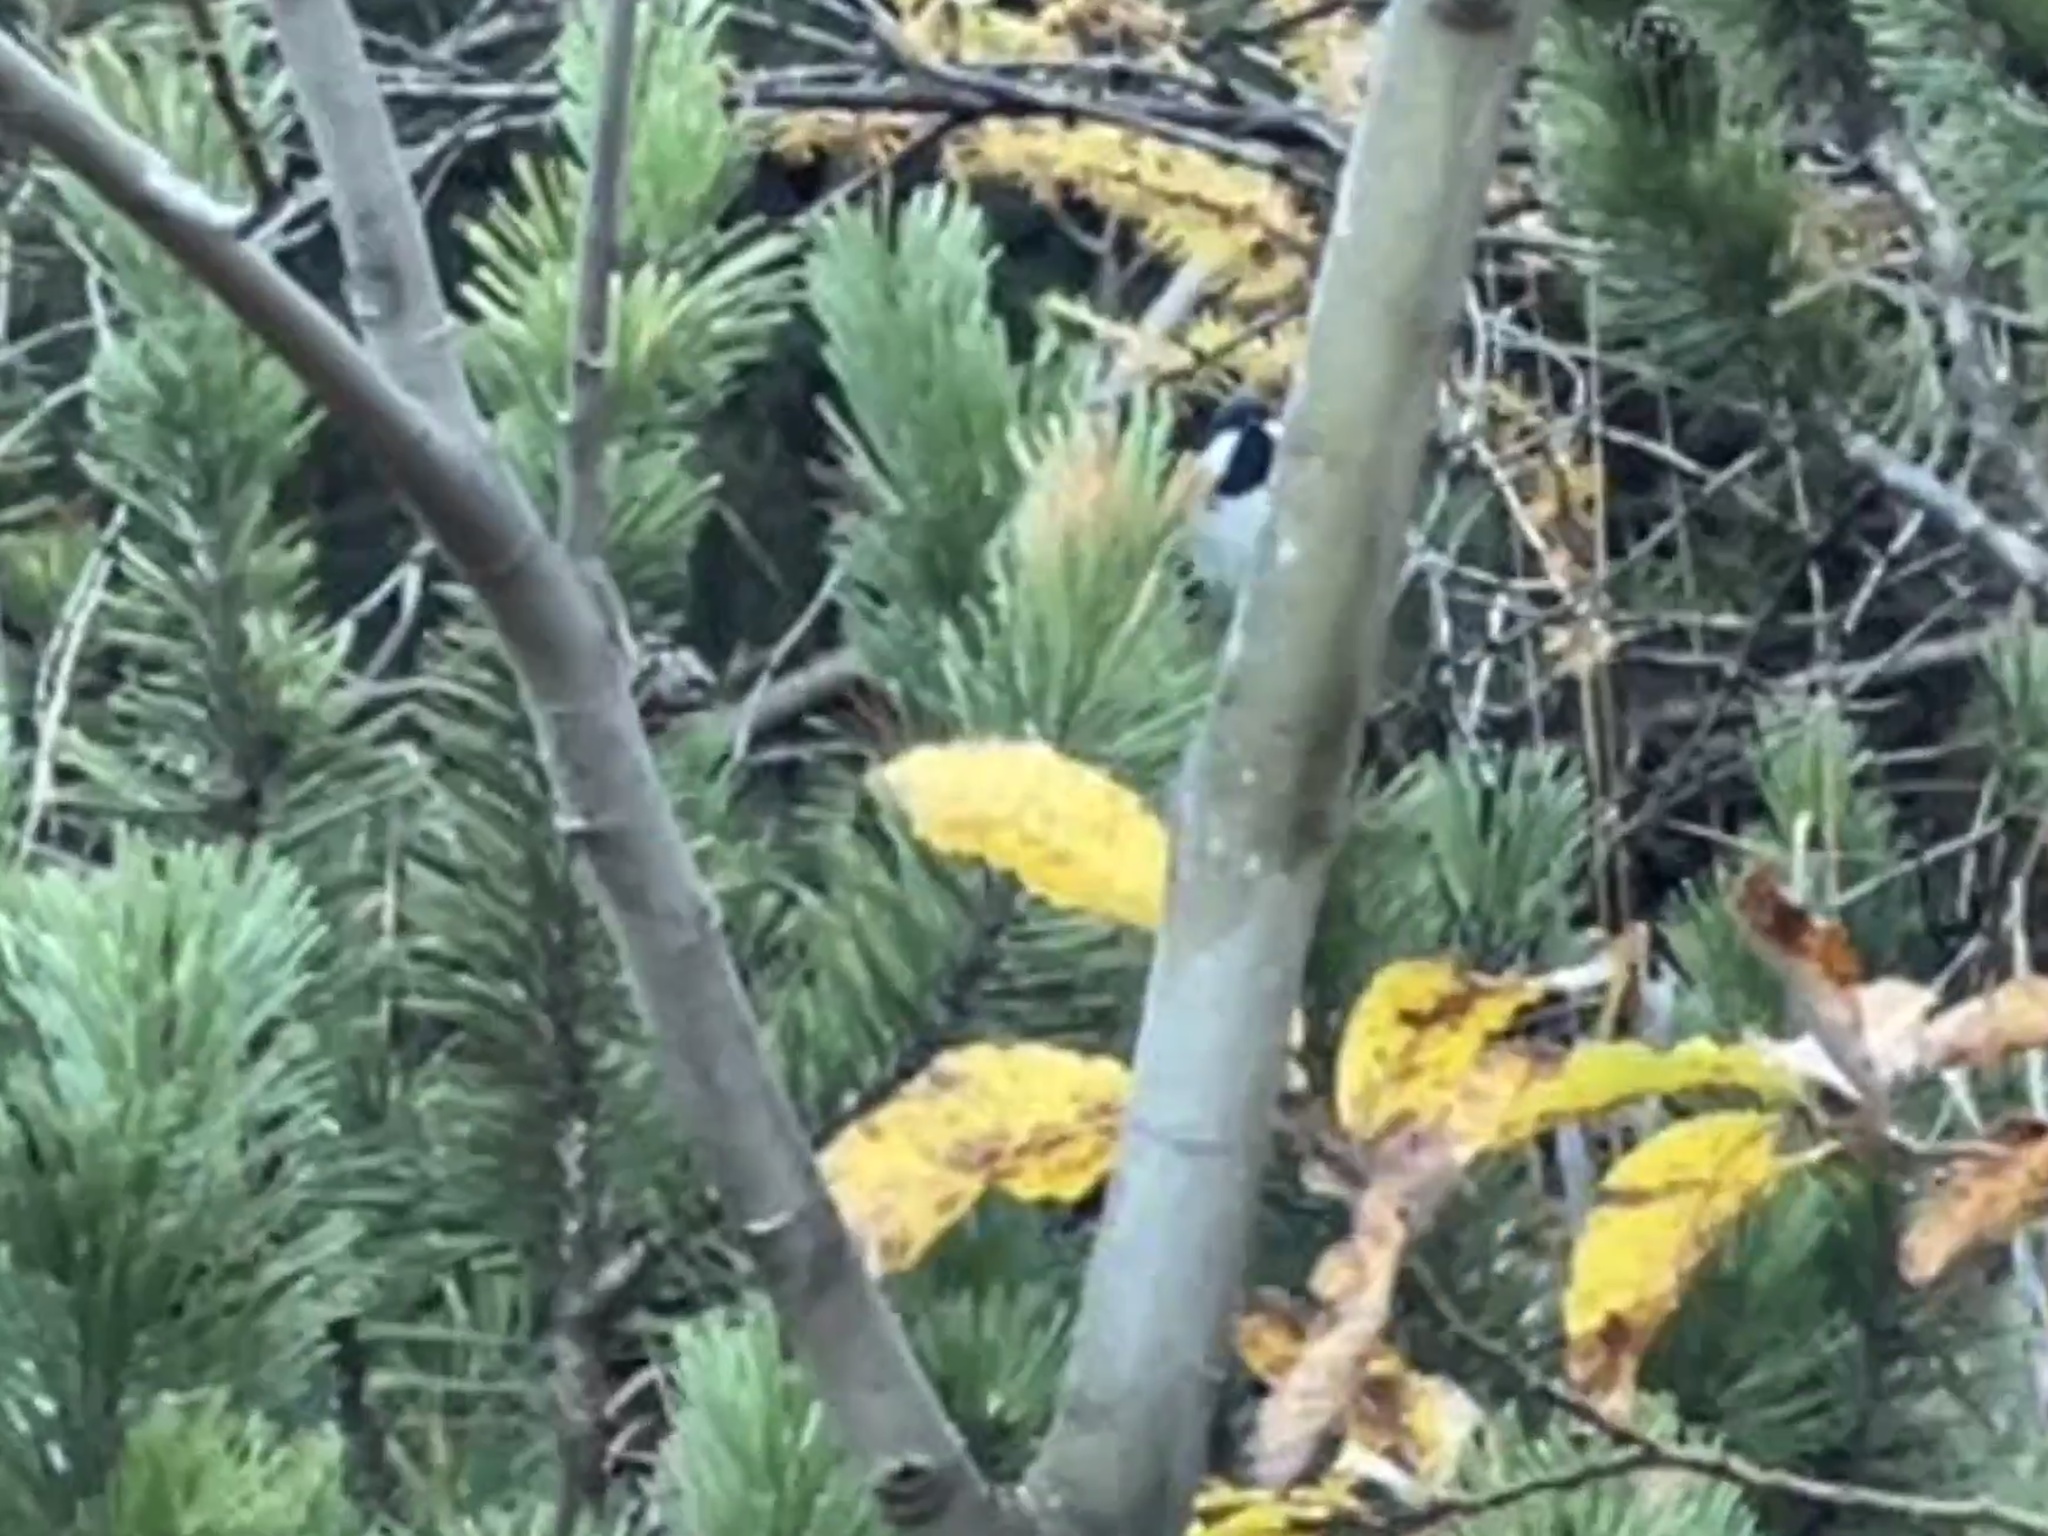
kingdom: Animalia
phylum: Chordata
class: Aves
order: Passeriformes
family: Paridae
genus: Periparus
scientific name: Periparus ater
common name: Coal tit
